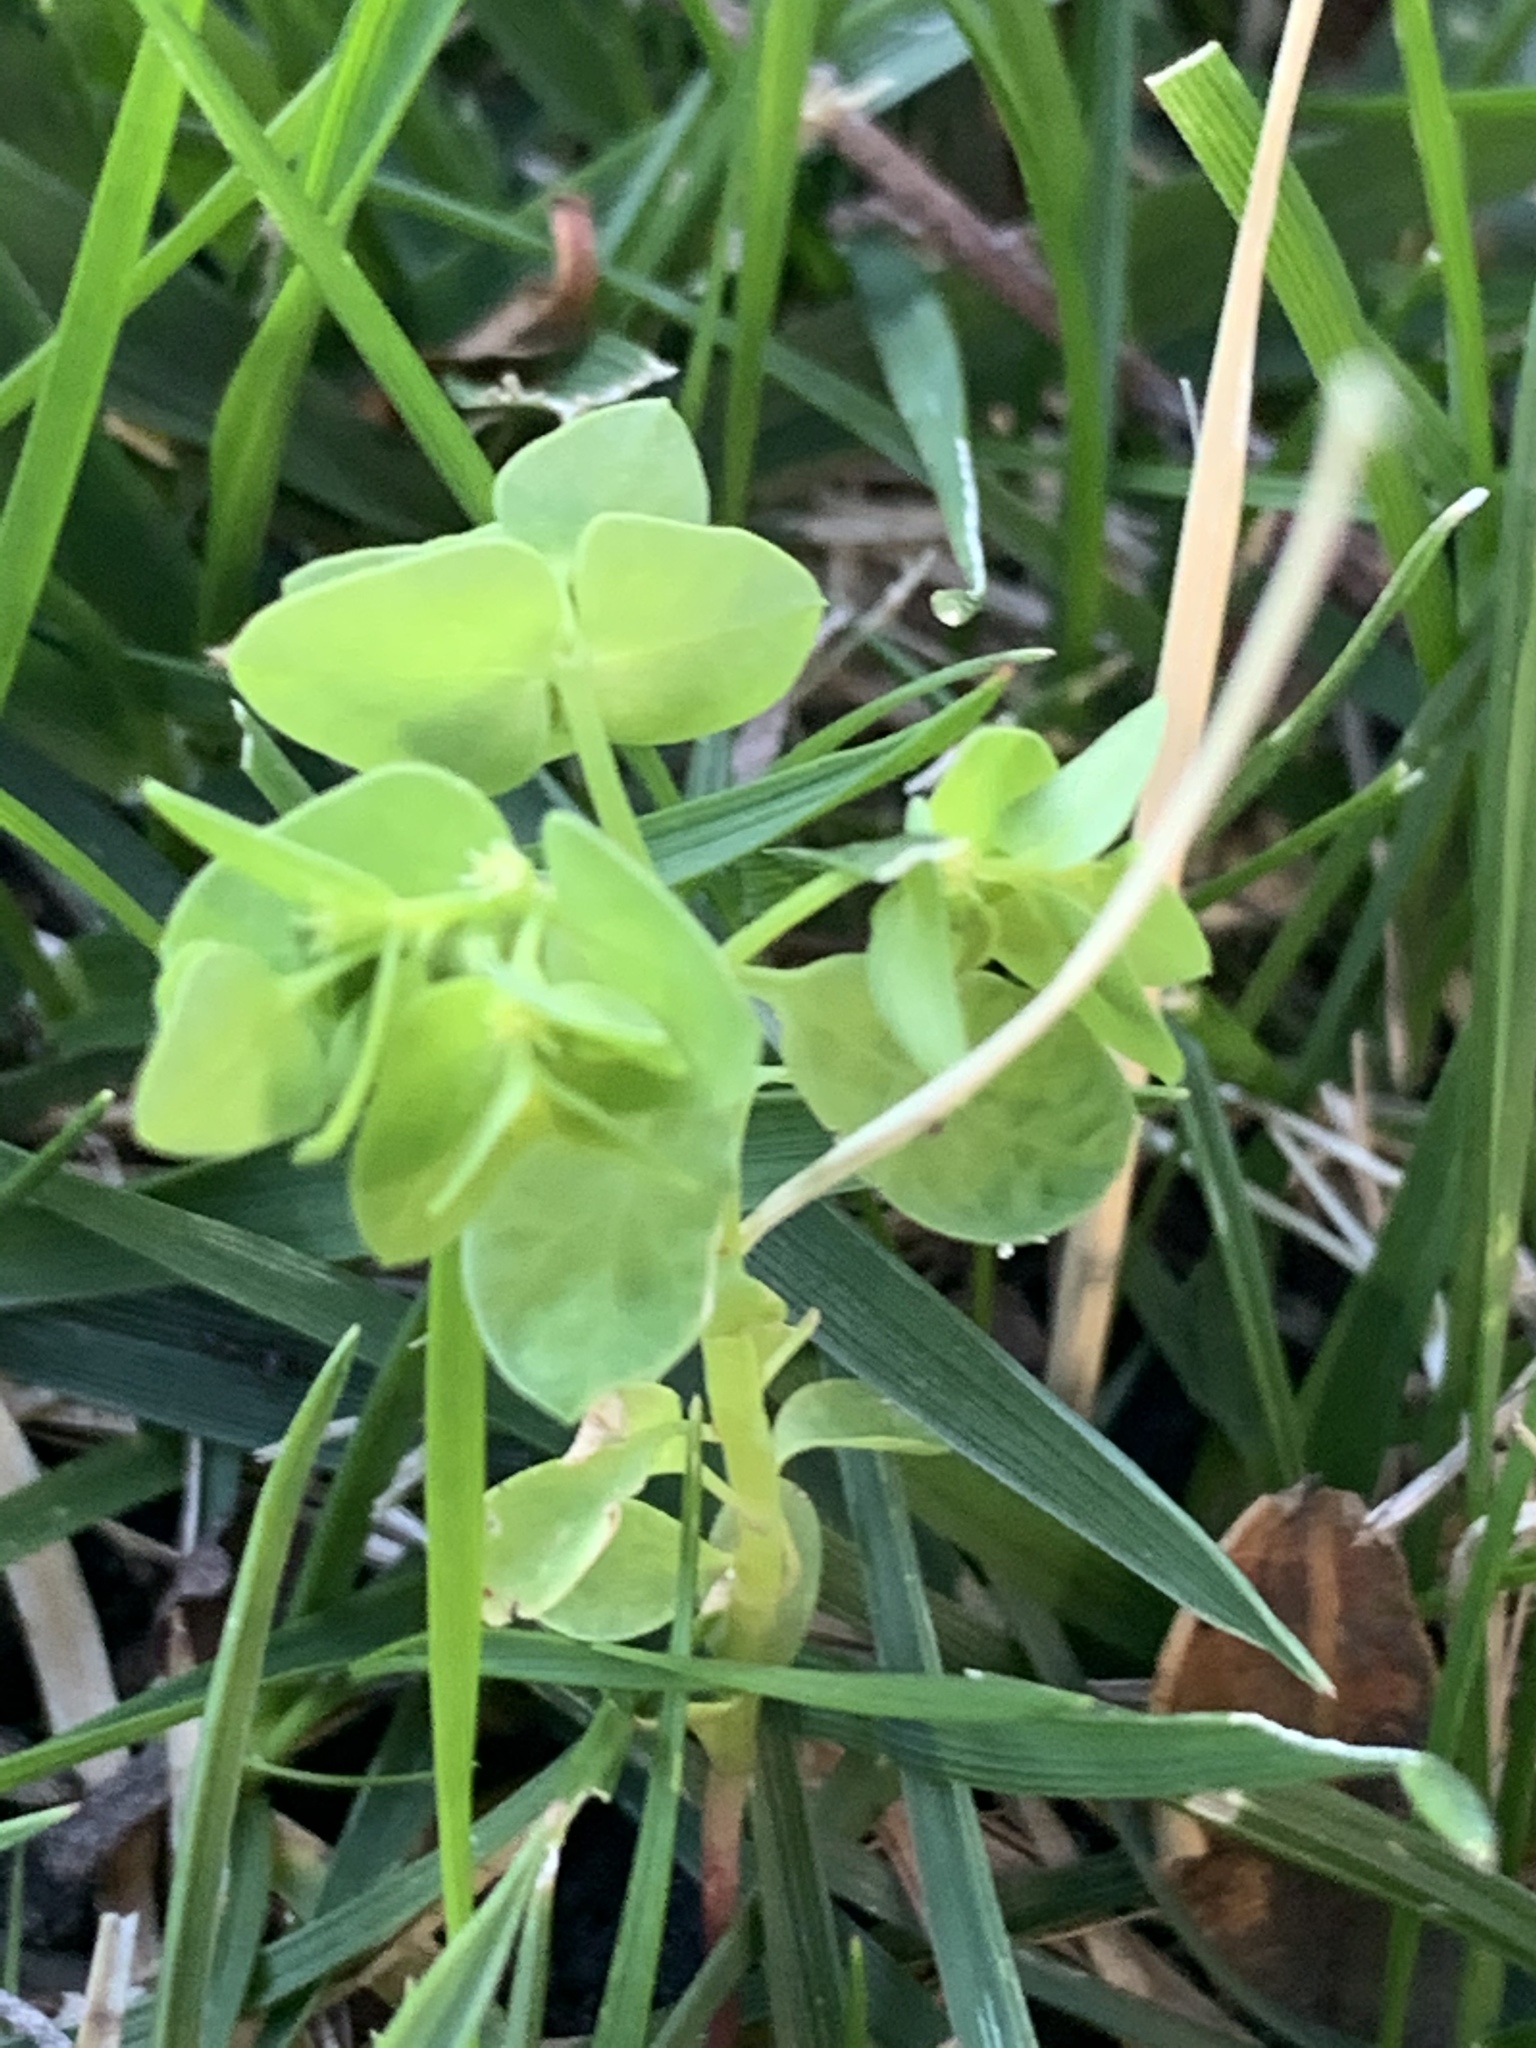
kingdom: Plantae
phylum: Tracheophyta
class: Magnoliopsida
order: Malpighiales
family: Euphorbiaceae
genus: Euphorbia
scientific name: Euphorbia peplus
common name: Petty spurge
